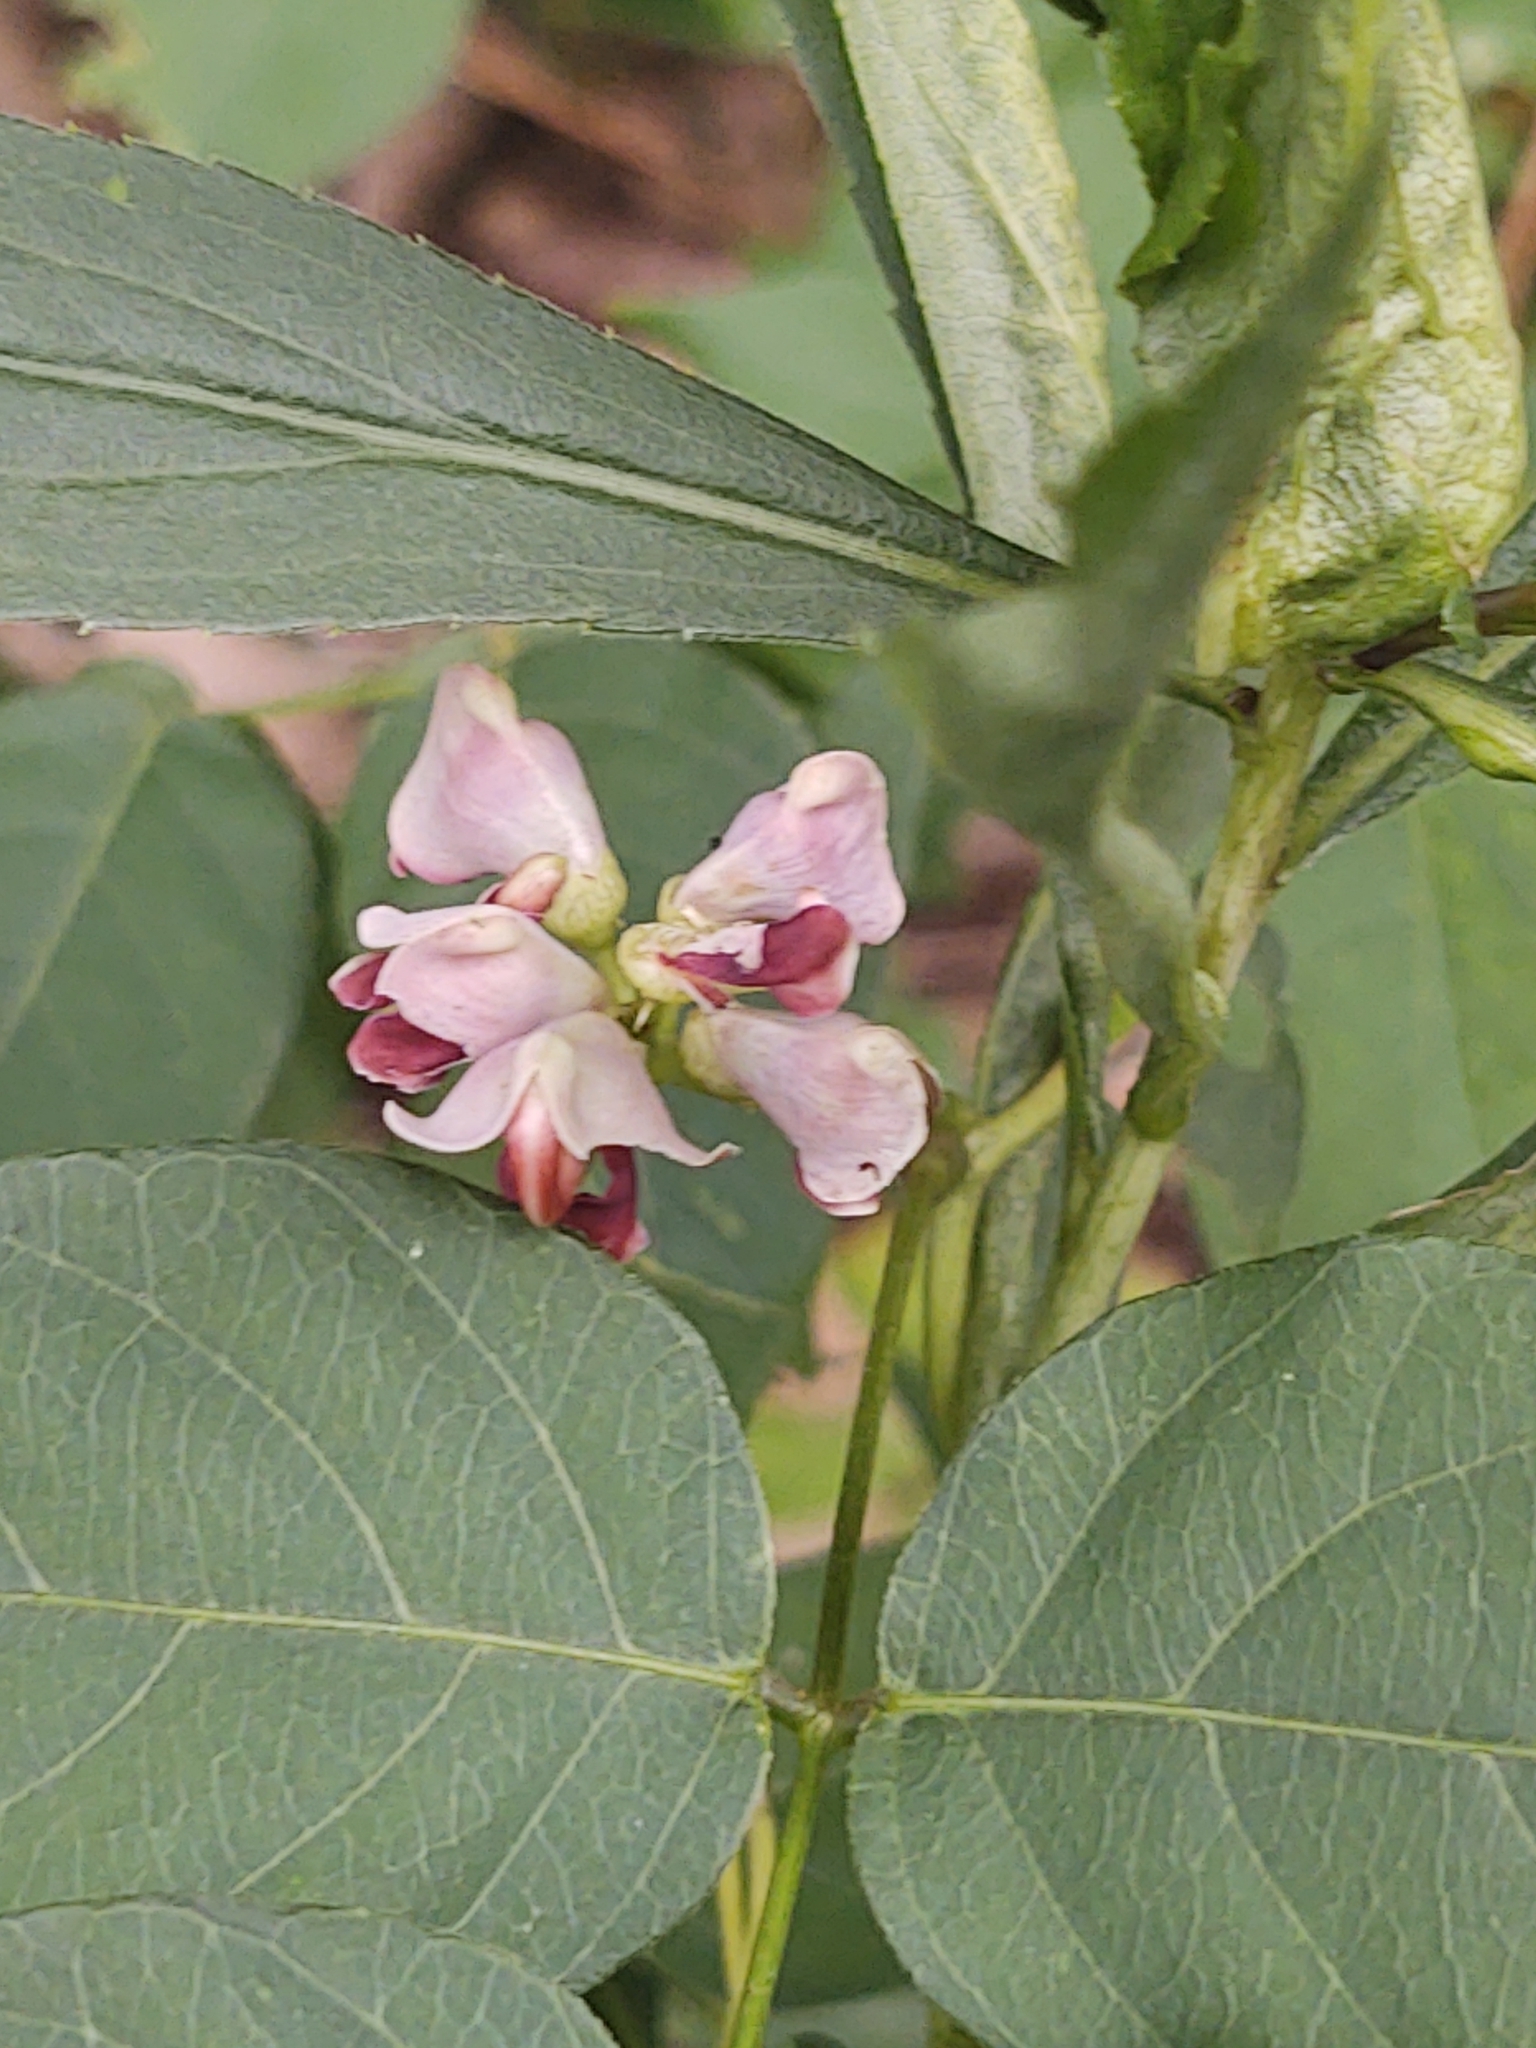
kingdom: Plantae
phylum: Tracheophyta
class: Magnoliopsida
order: Fabales
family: Fabaceae
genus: Apios
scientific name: Apios americana
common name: American potato-bean
